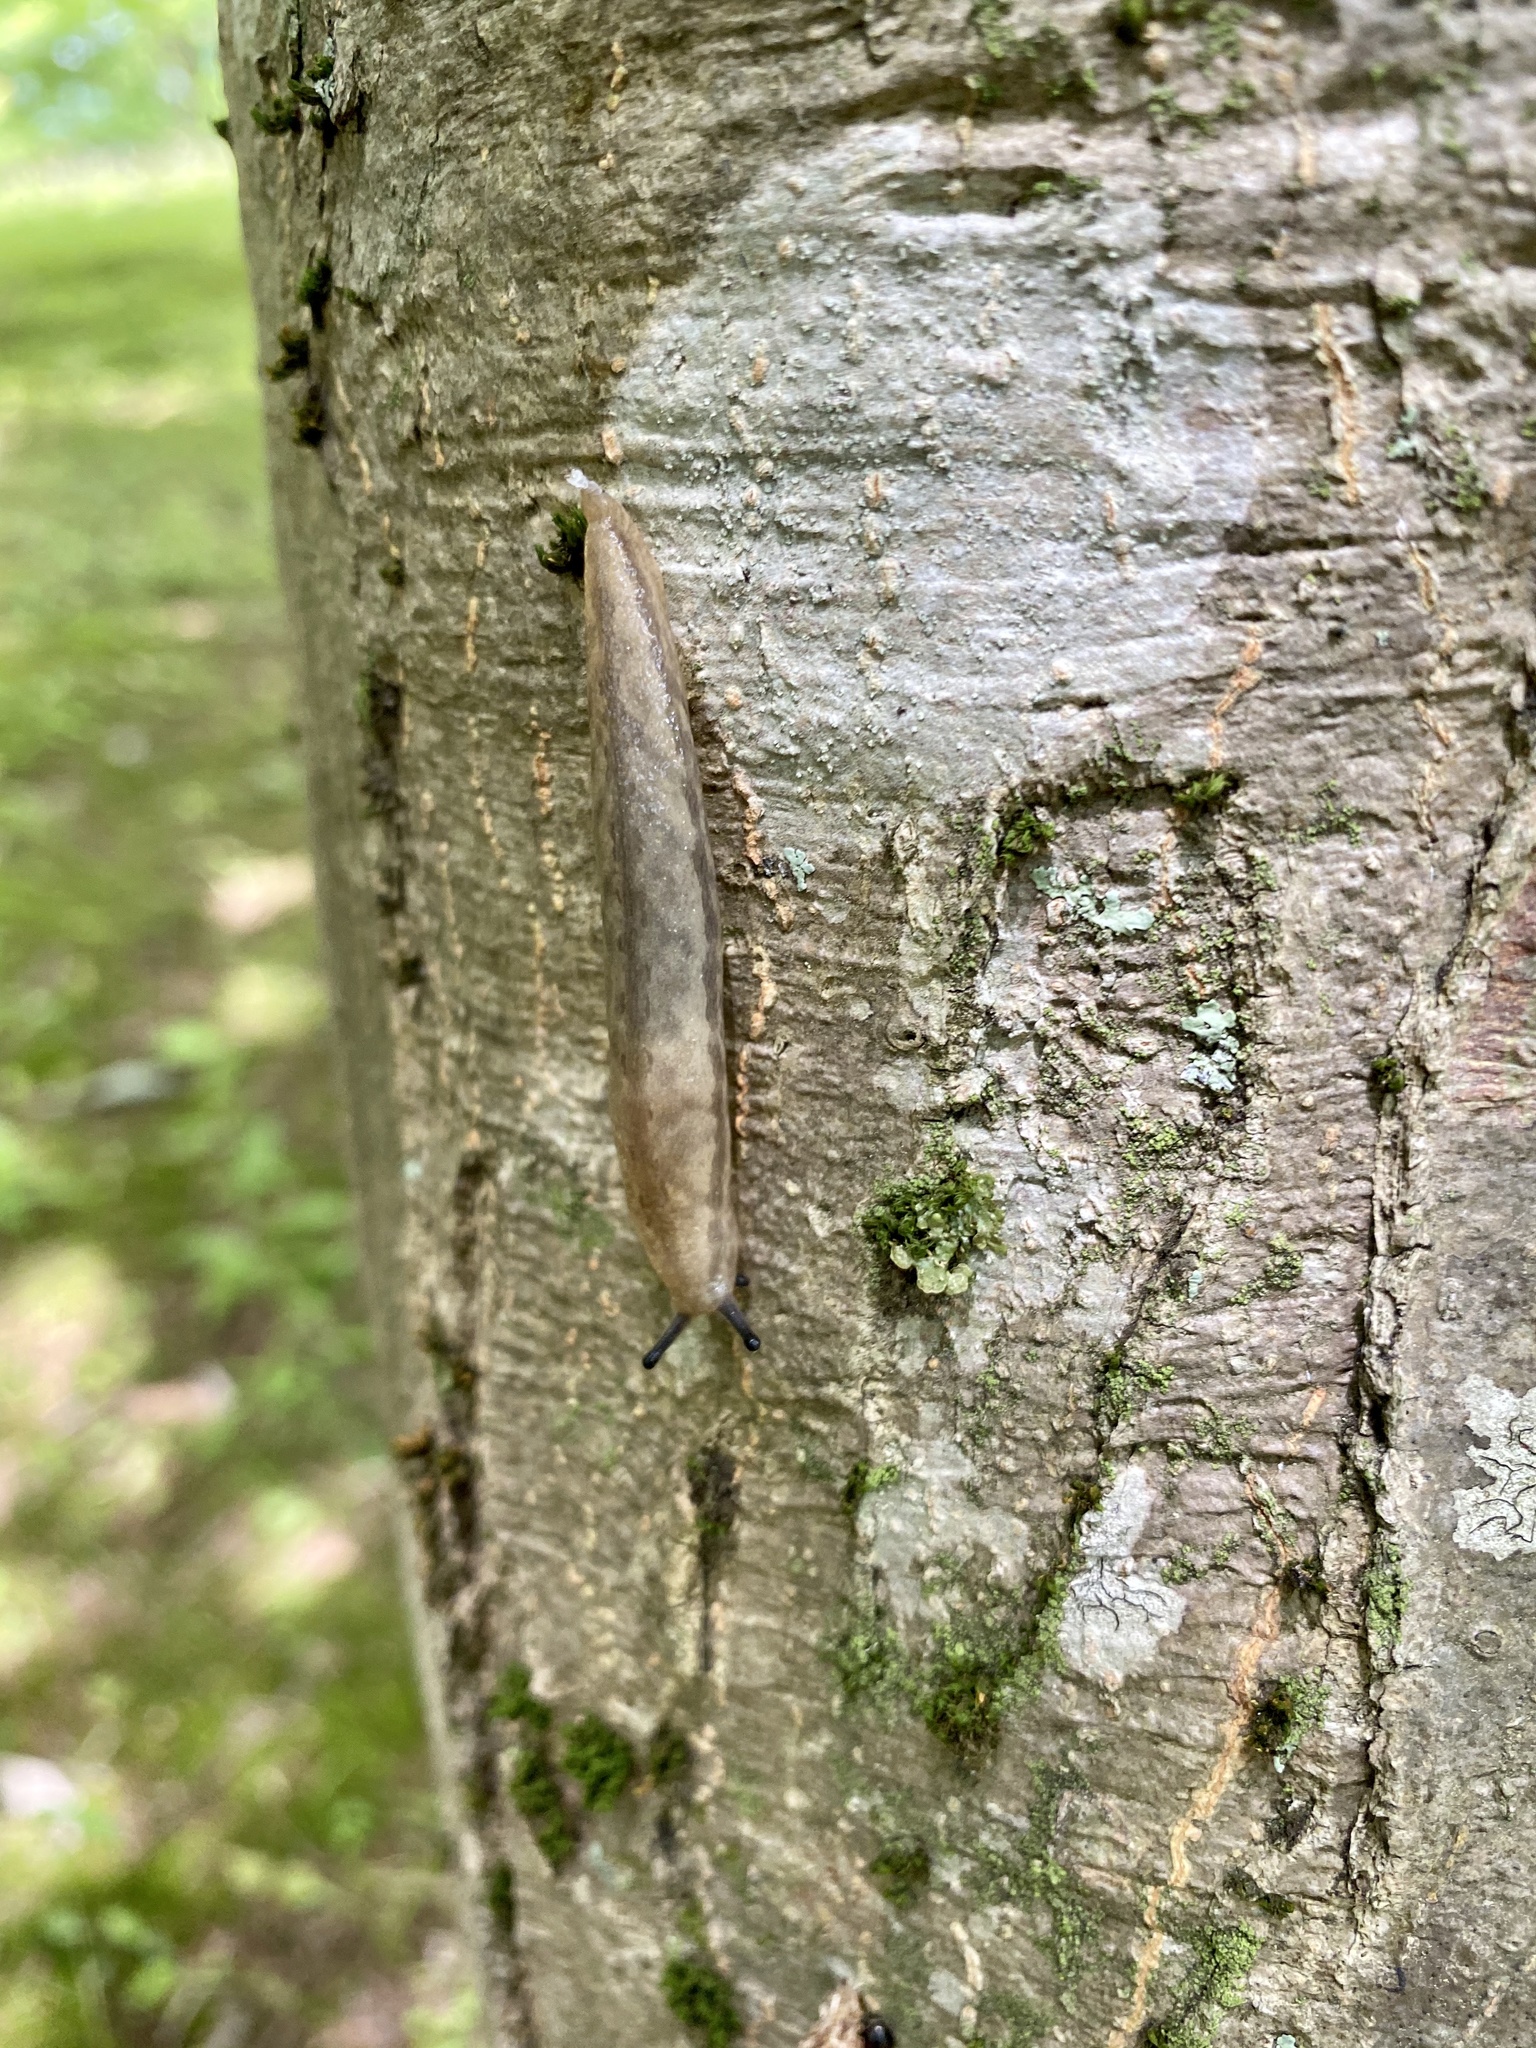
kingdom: Animalia
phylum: Mollusca
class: Gastropoda
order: Stylommatophora
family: Philomycidae
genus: Meghimatium
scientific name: Meghimatium fruhstorferi
